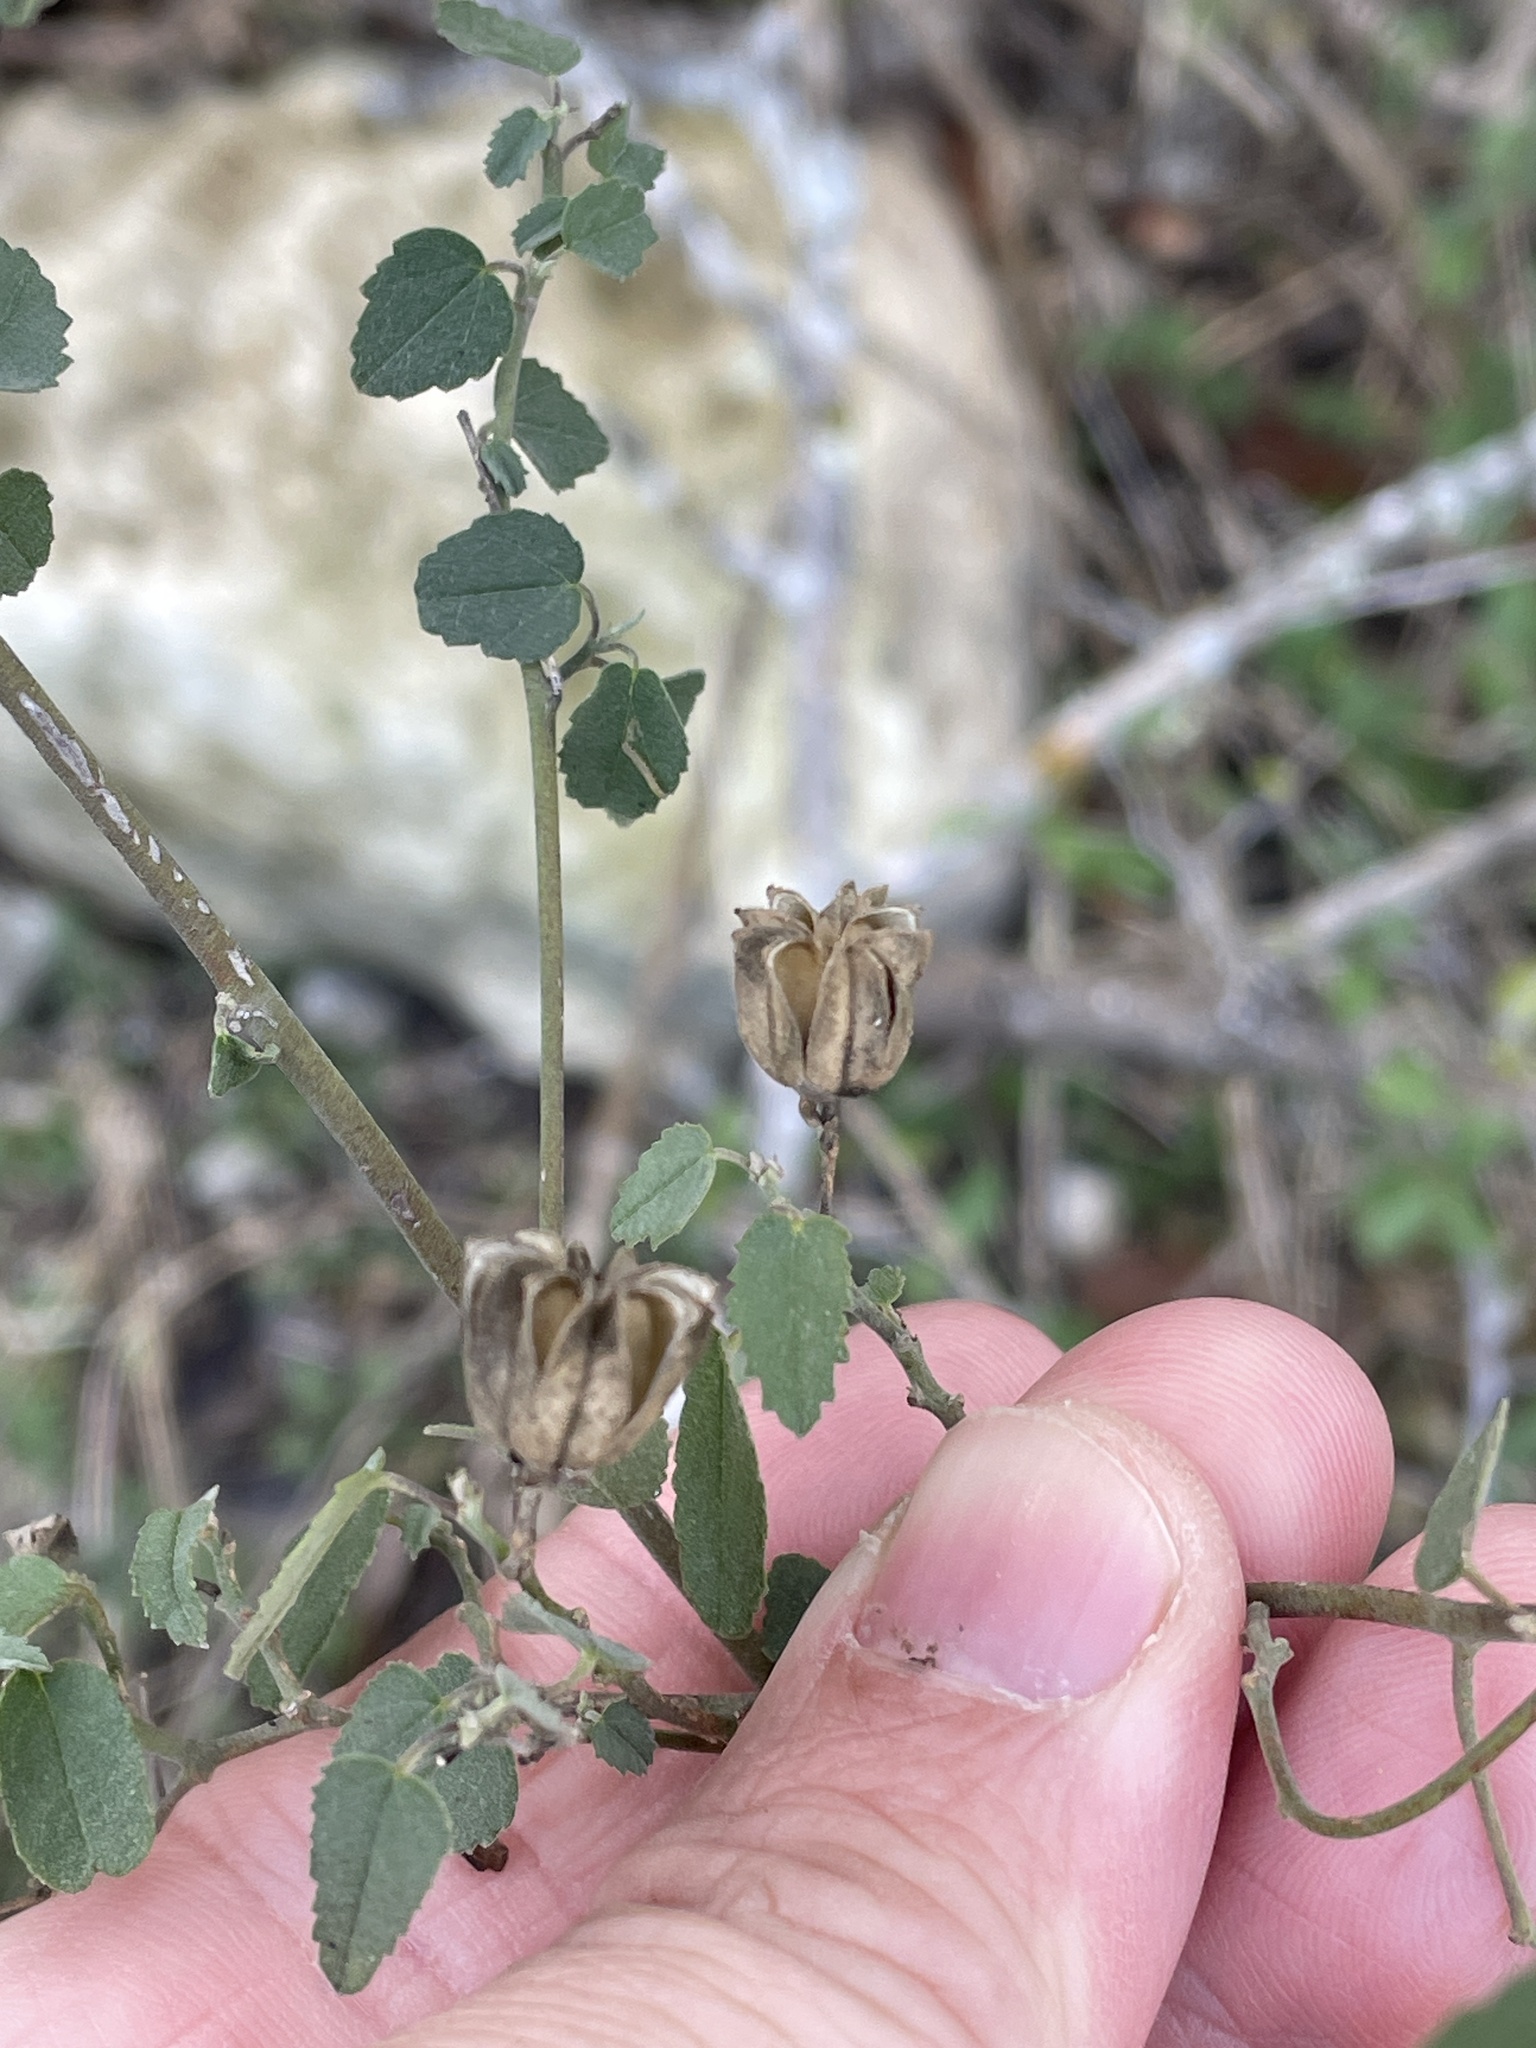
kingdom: Plantae
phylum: Tracheophyta
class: Magnoliopsida
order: Malvales
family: Malvaceae
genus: Abutilon
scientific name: Abutilon fruticosum
